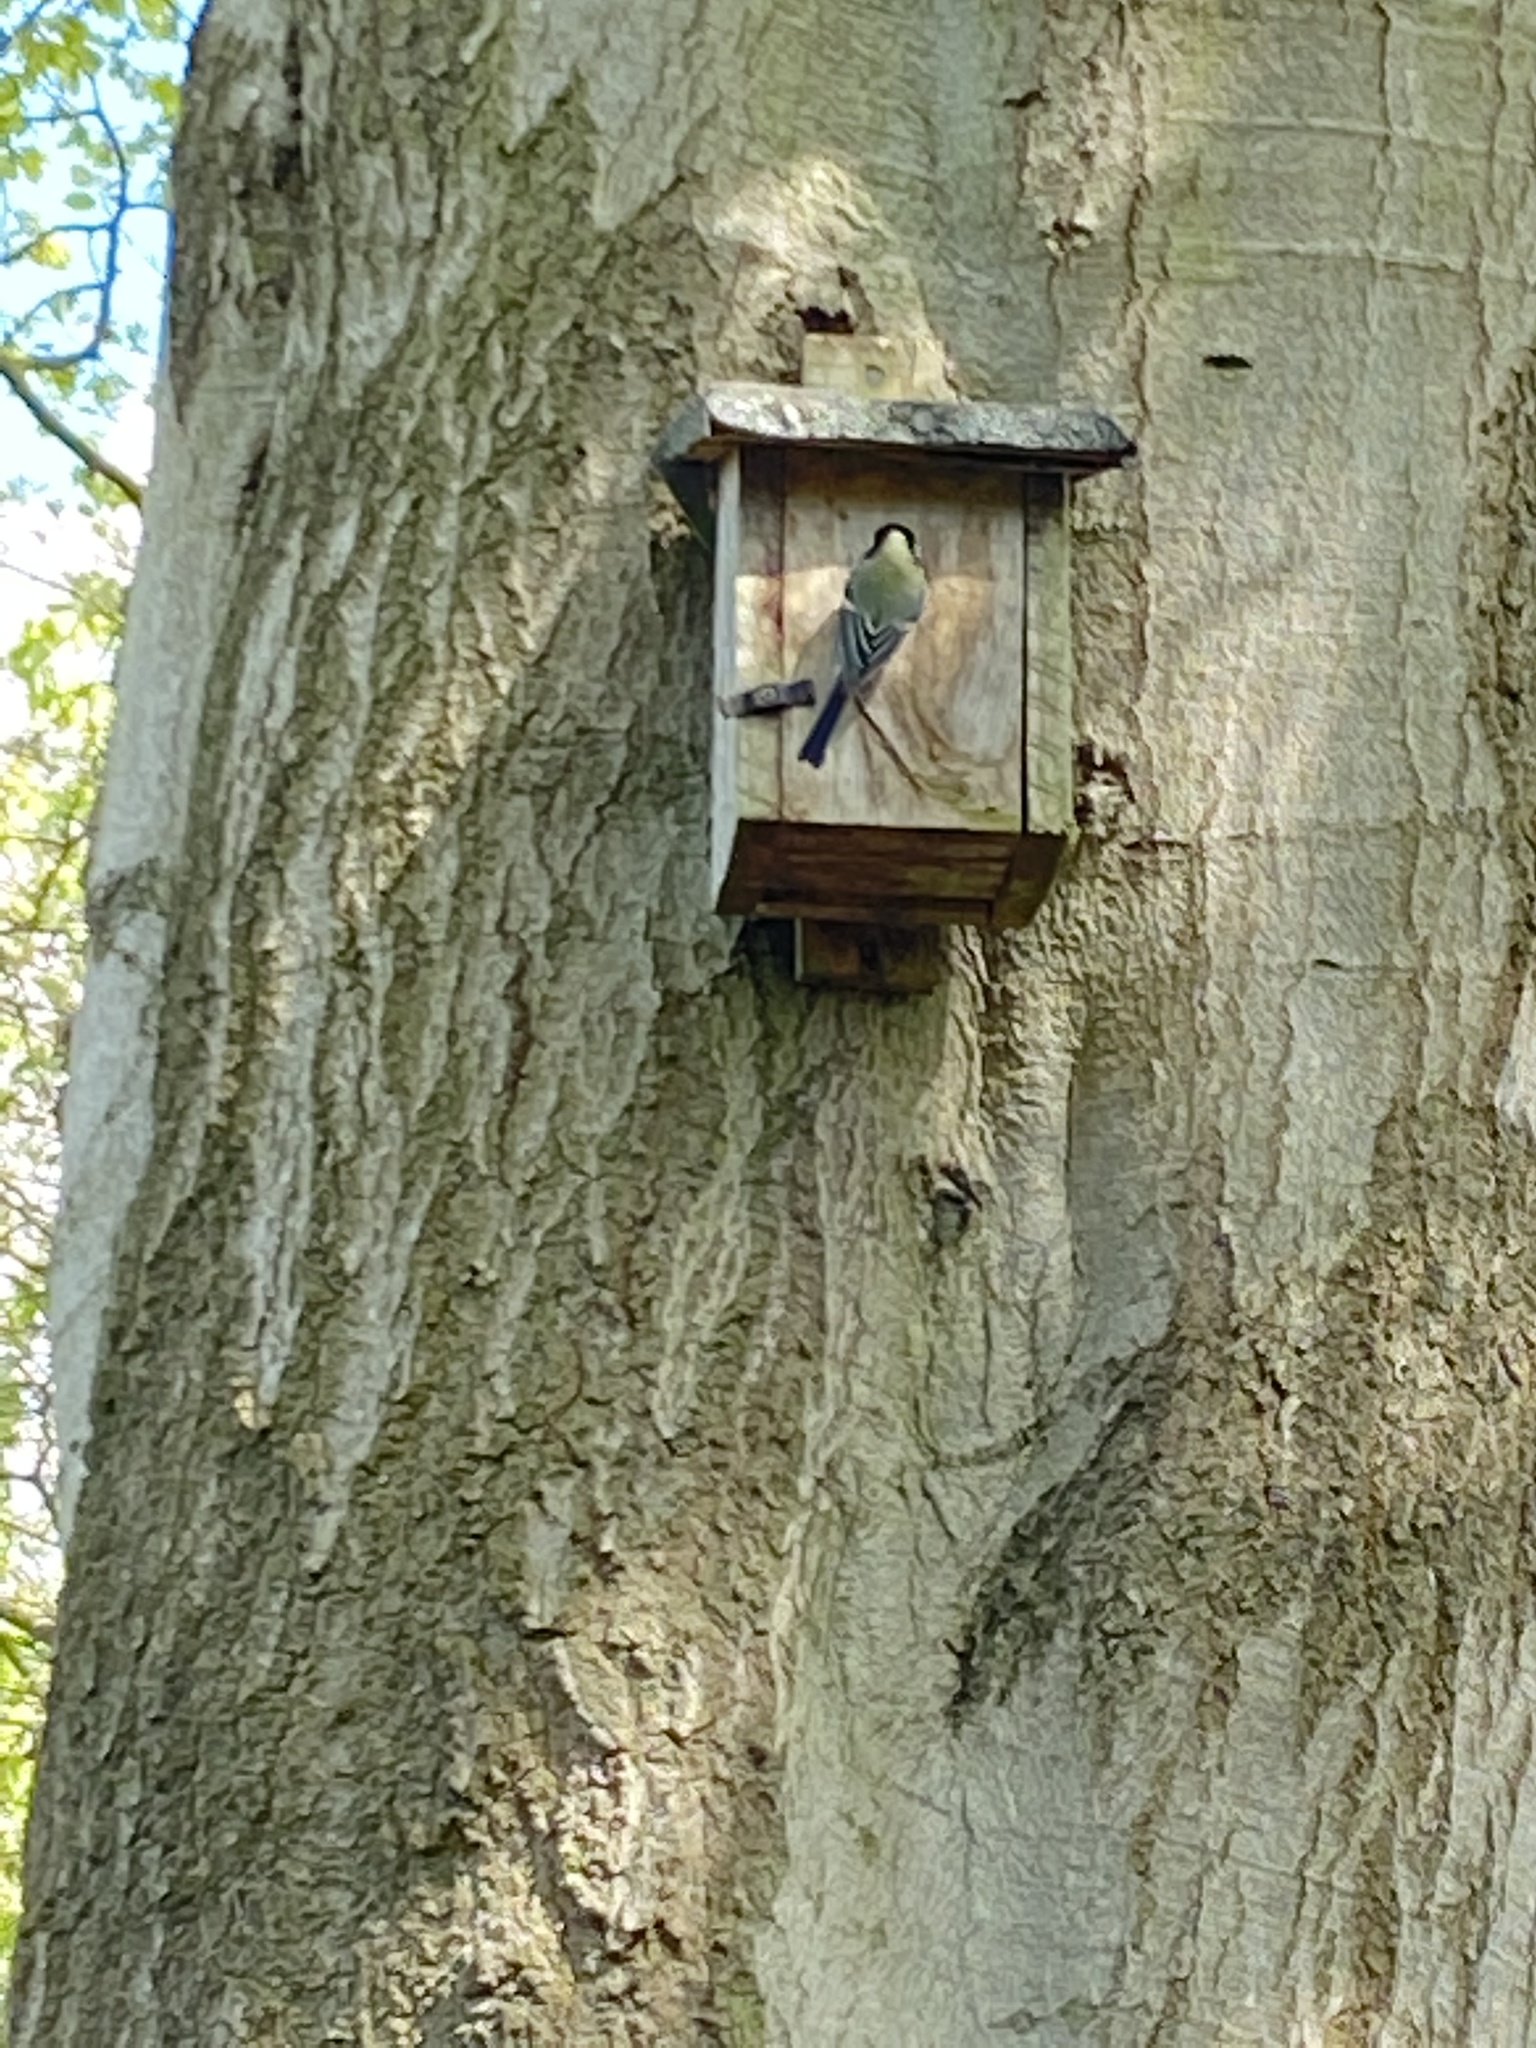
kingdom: Animalia
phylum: Chordata
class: Aves
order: Passeriformes
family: Paridae
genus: Parus
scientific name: Parus major
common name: Great tit
